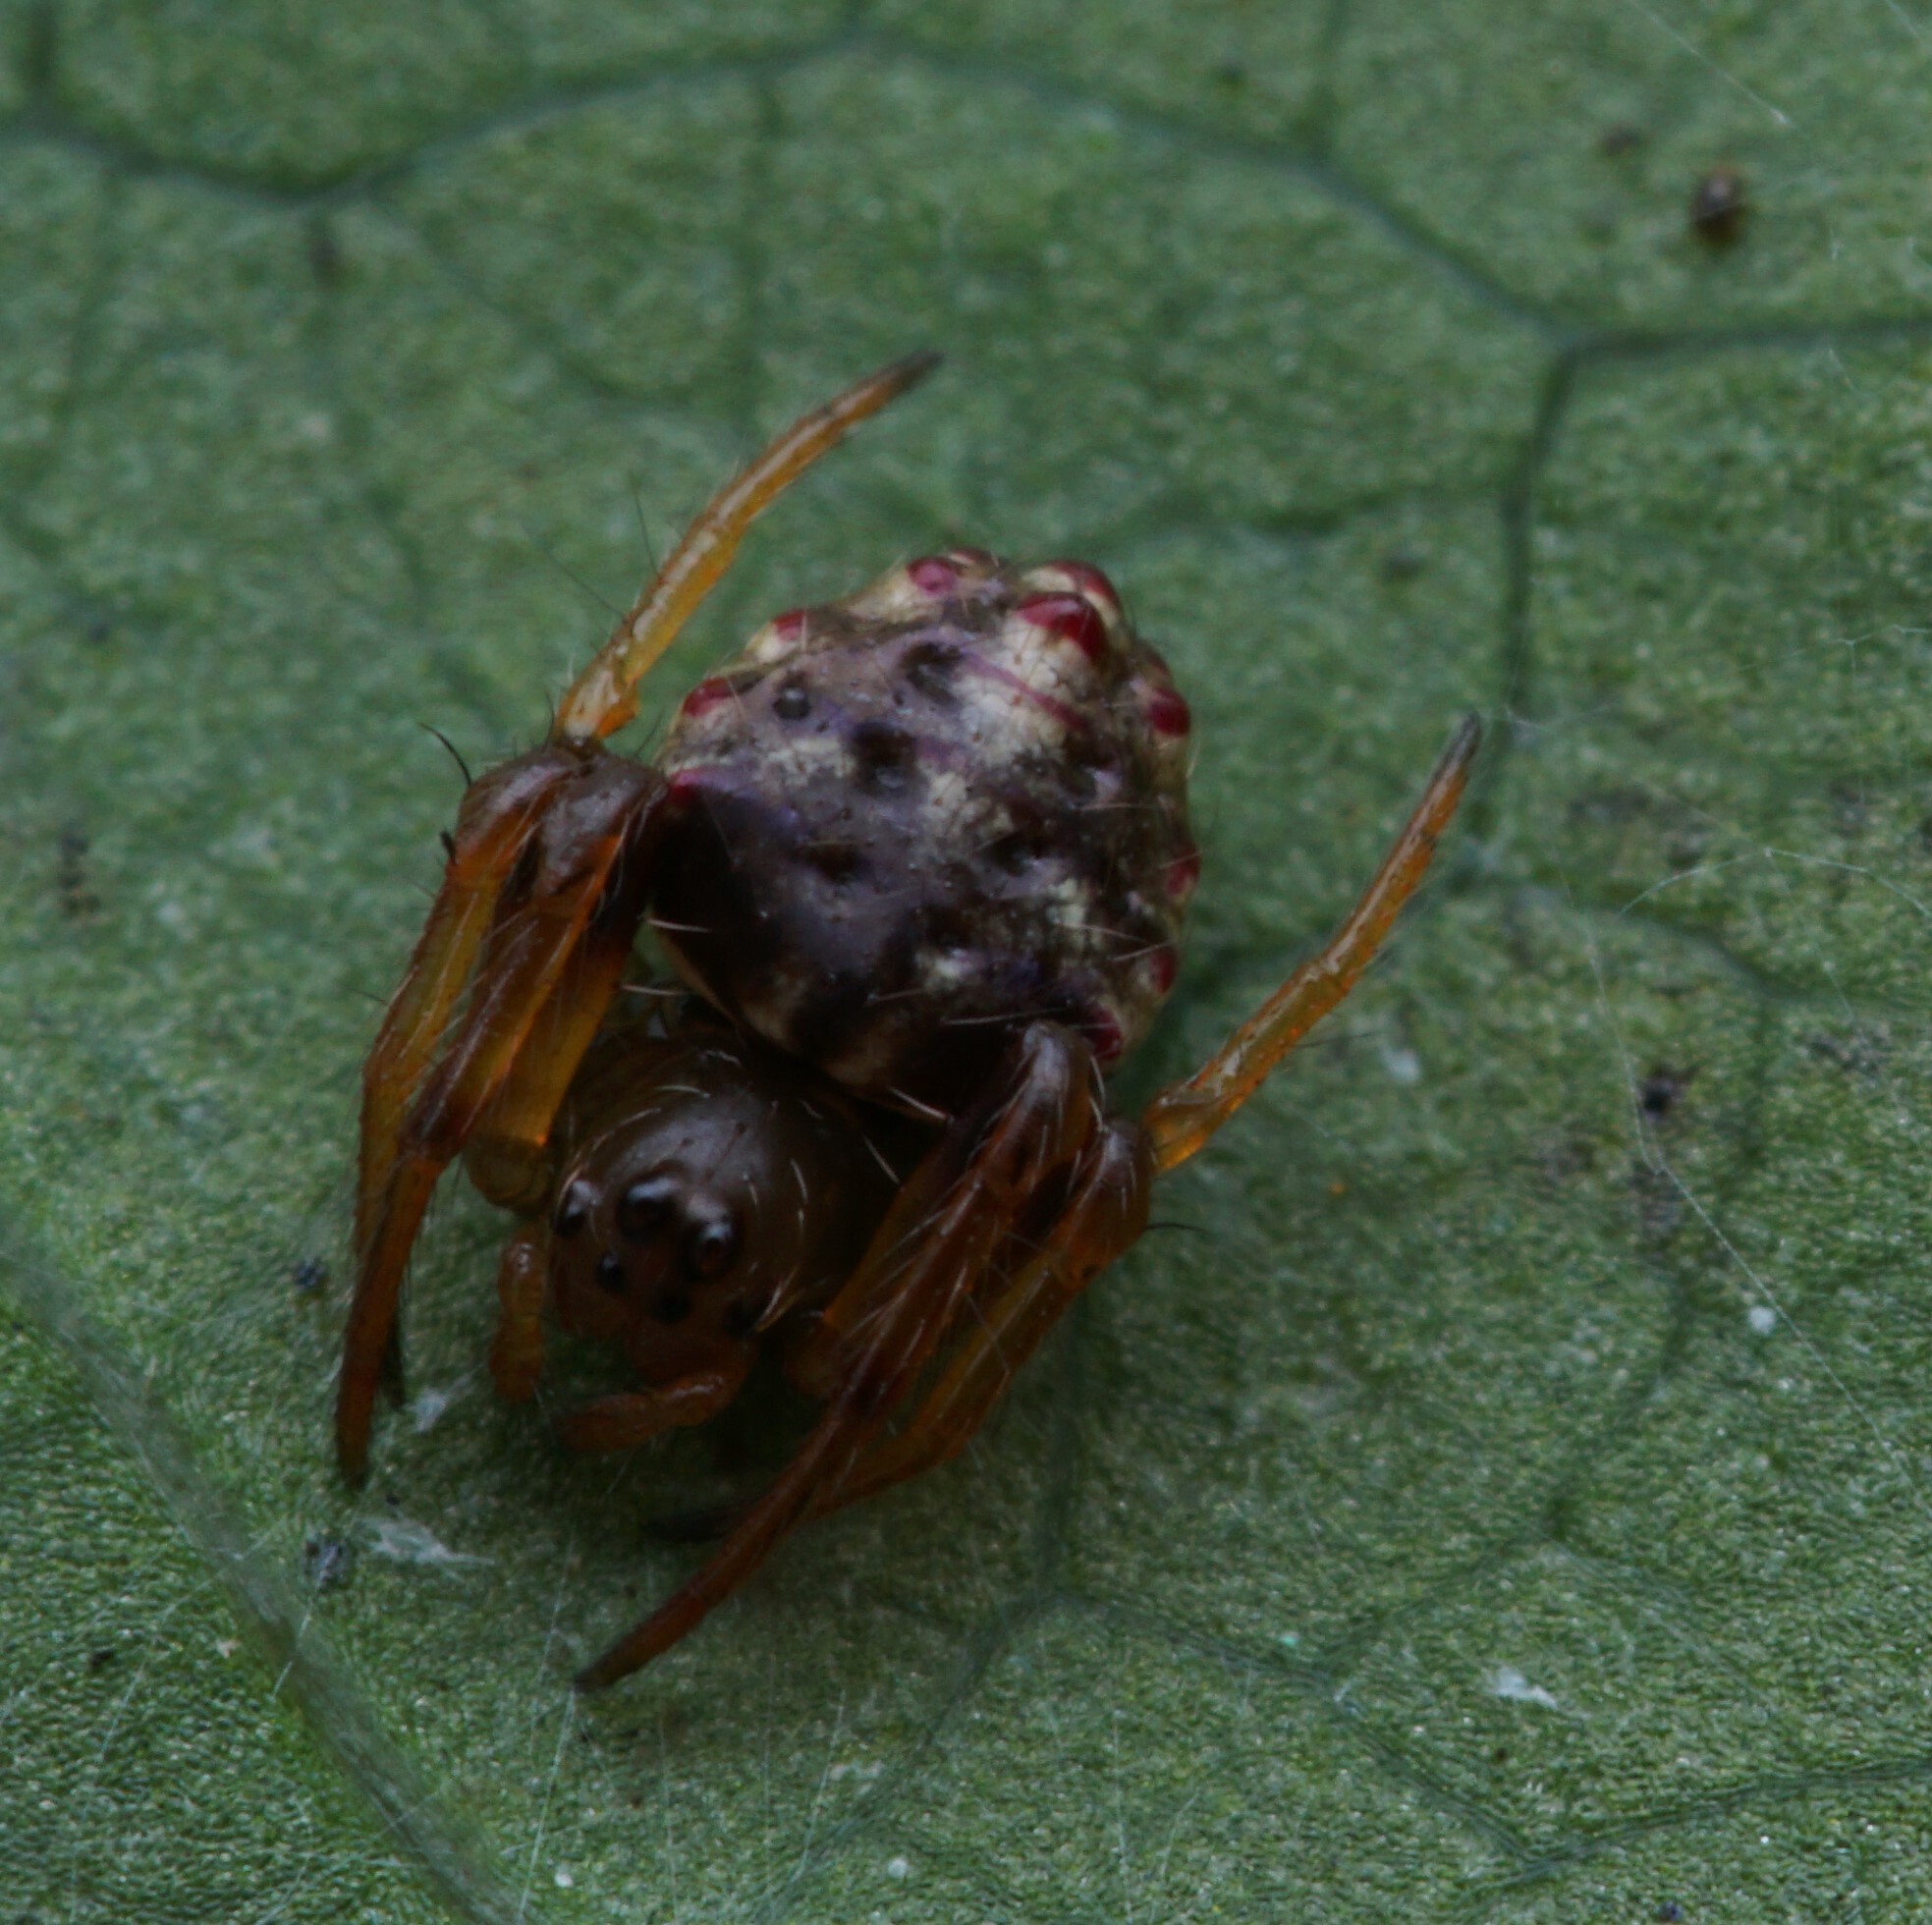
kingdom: Animalia
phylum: Arthropoda
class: Arachnida
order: Araneae
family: Araneidae
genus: Verrucosa
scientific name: Verrucosa meridionalis
